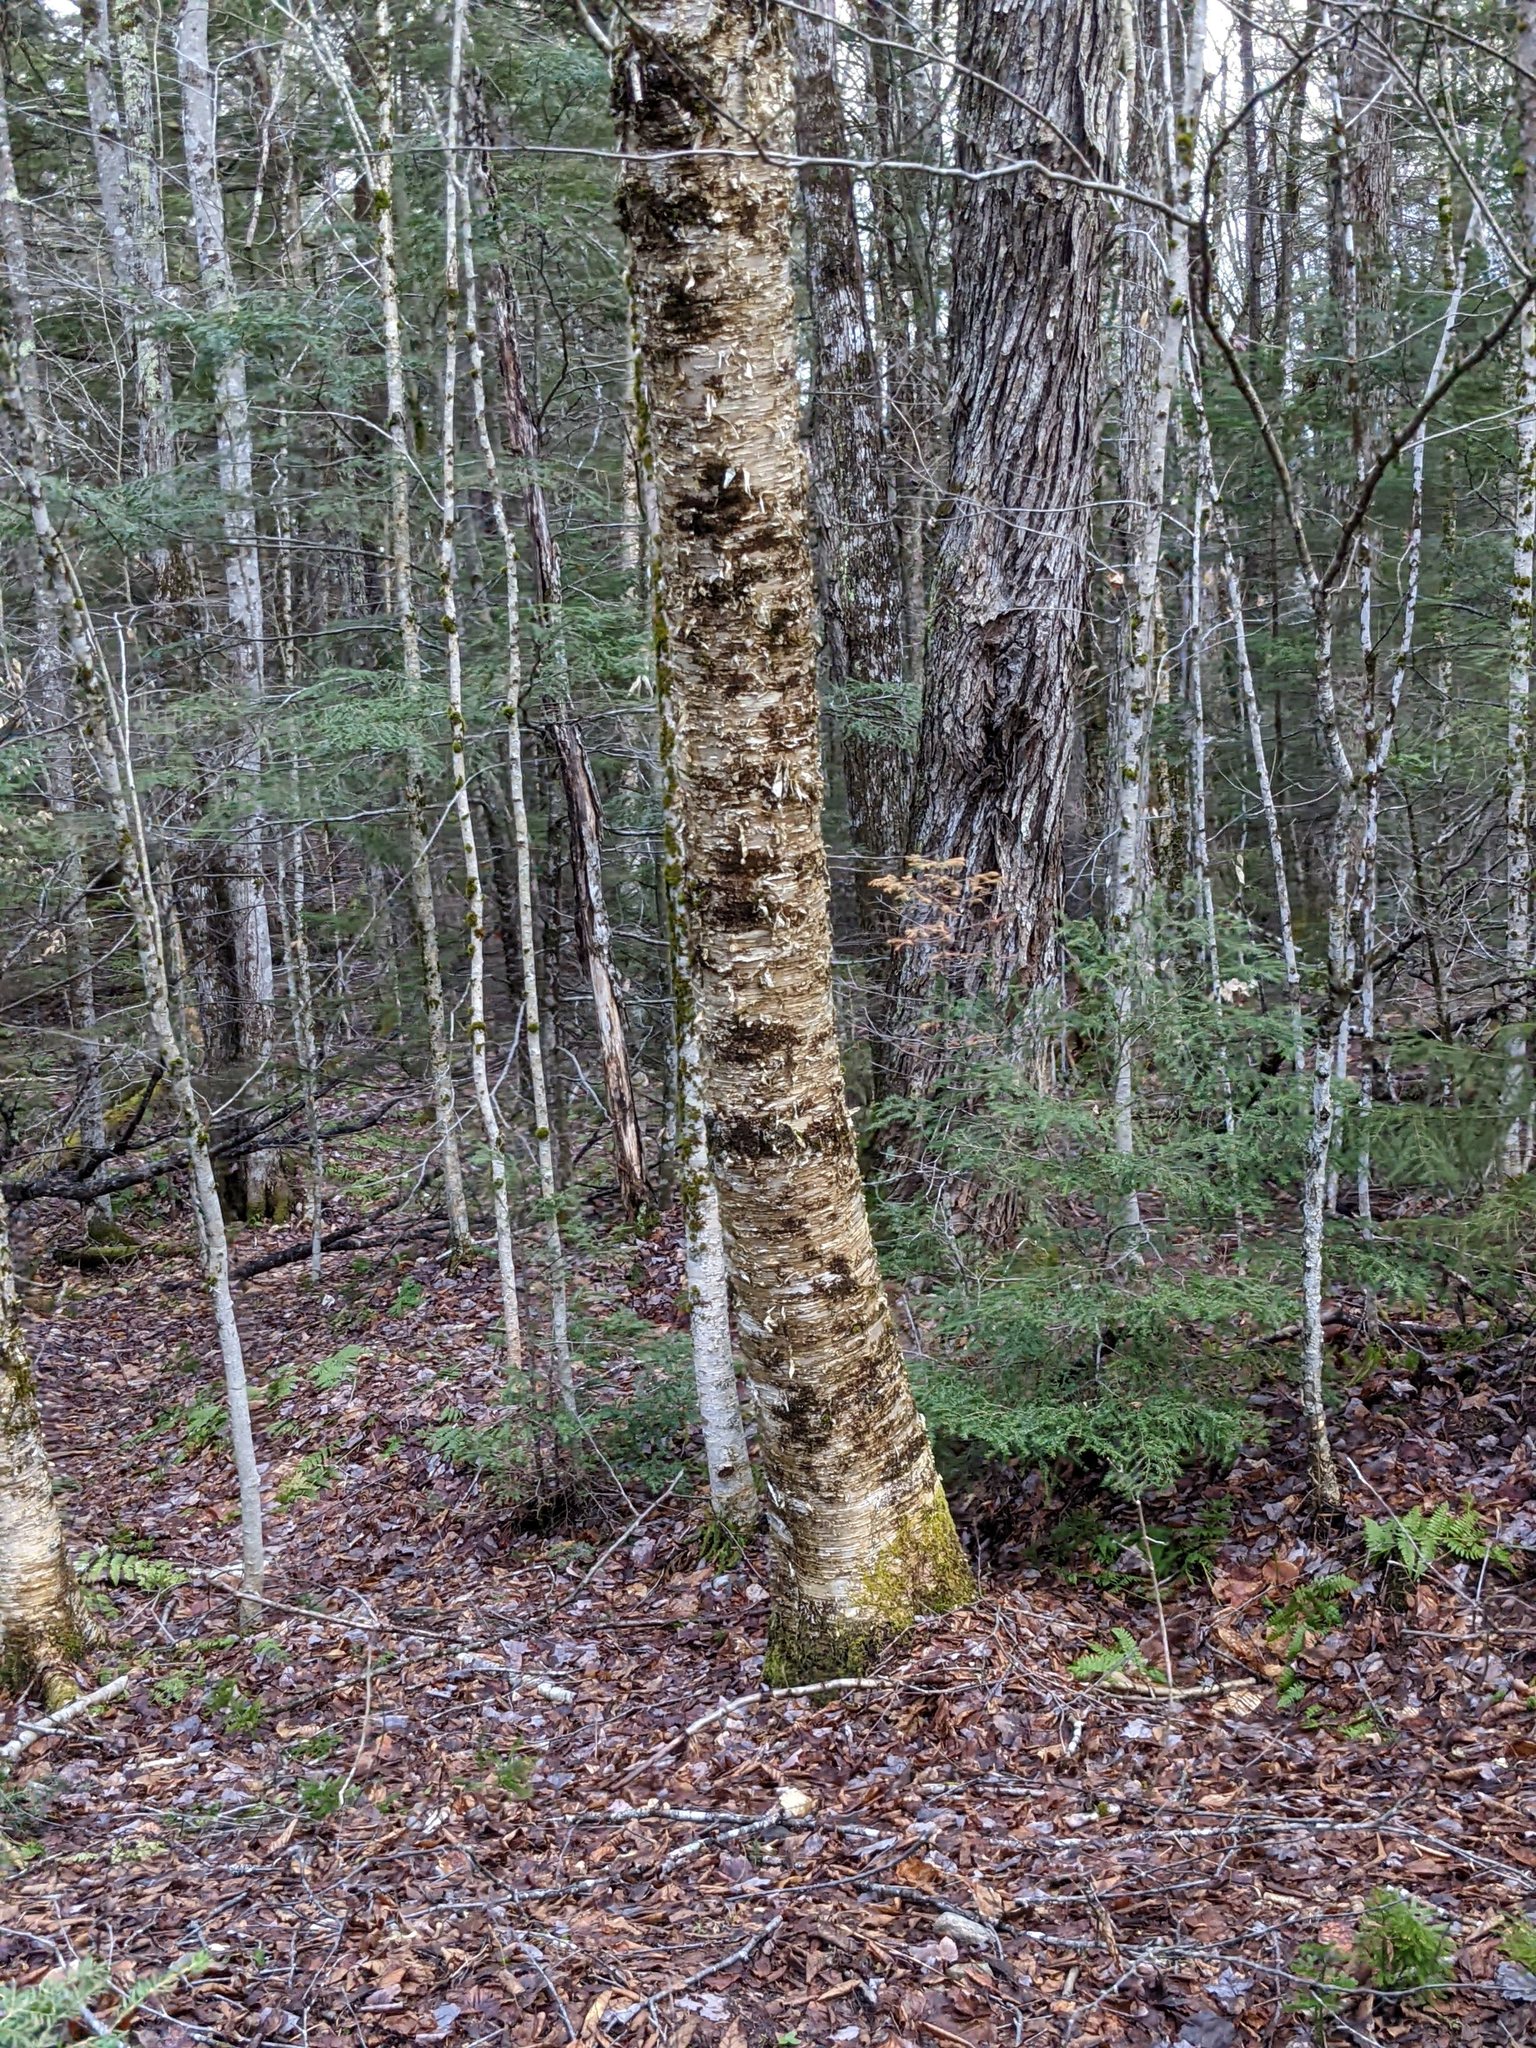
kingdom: Plantae
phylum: Tracheophyta
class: Magnoliopsida
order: Fagales
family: Betulaceae
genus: Betula
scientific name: Betula alleghaniensis
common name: Yellow birch
